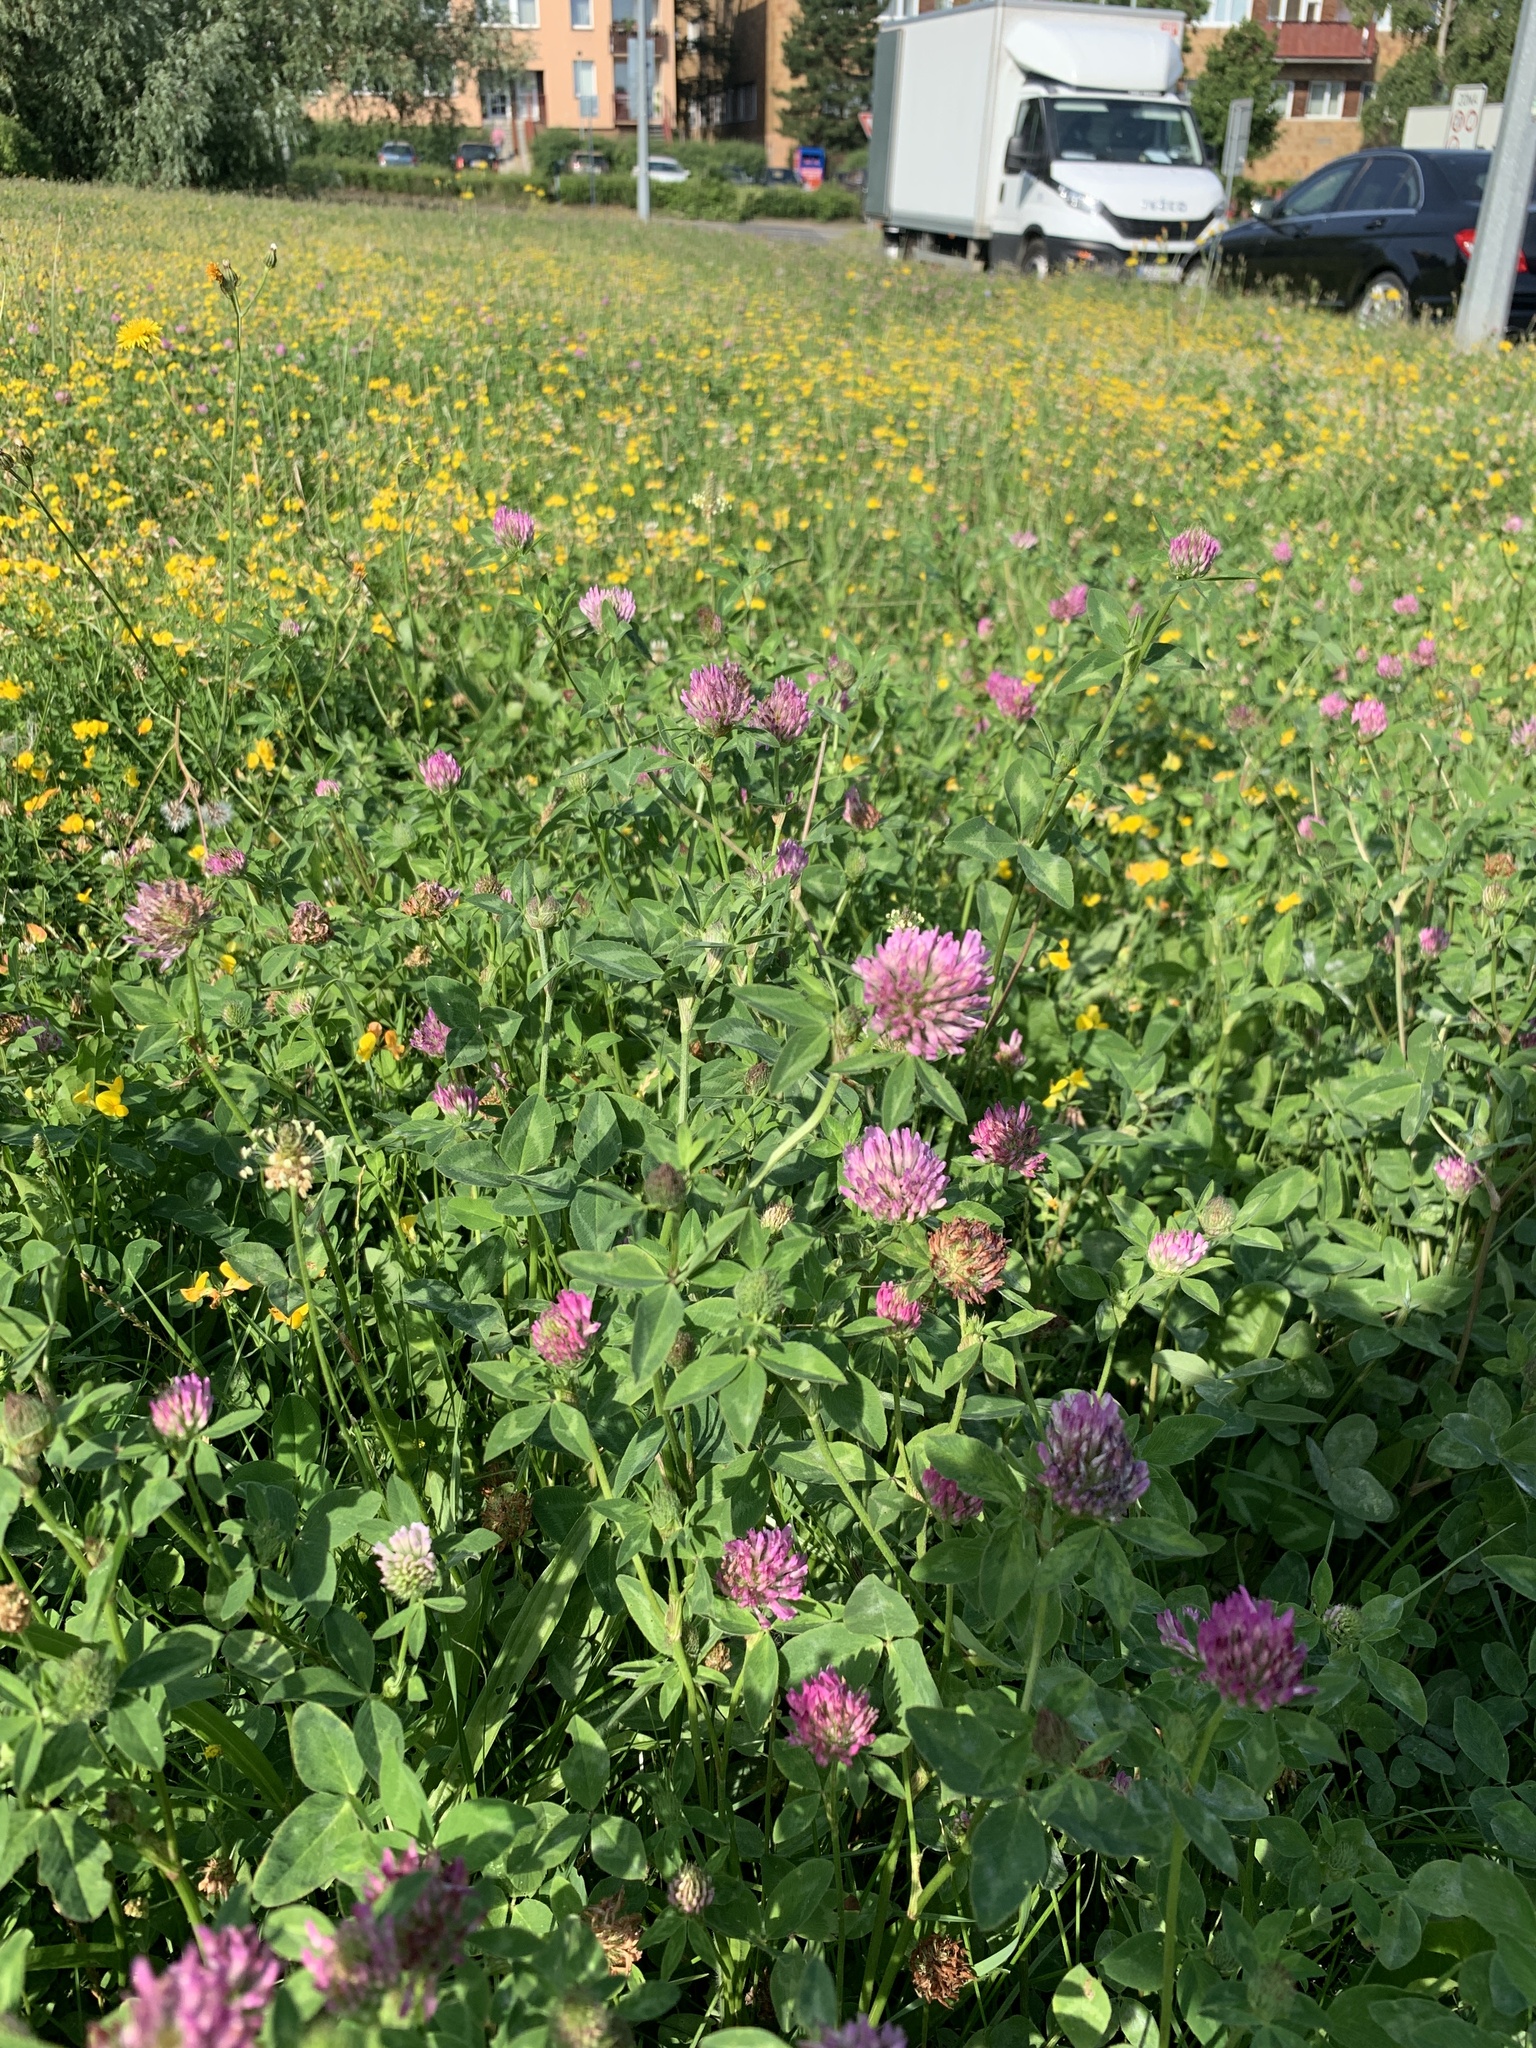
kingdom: Plantae
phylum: Tracheophyta
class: Magnoliopsida
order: Fabales
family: Fabaceae
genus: Trifolium
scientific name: Trifolium pratense
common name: Red clover
